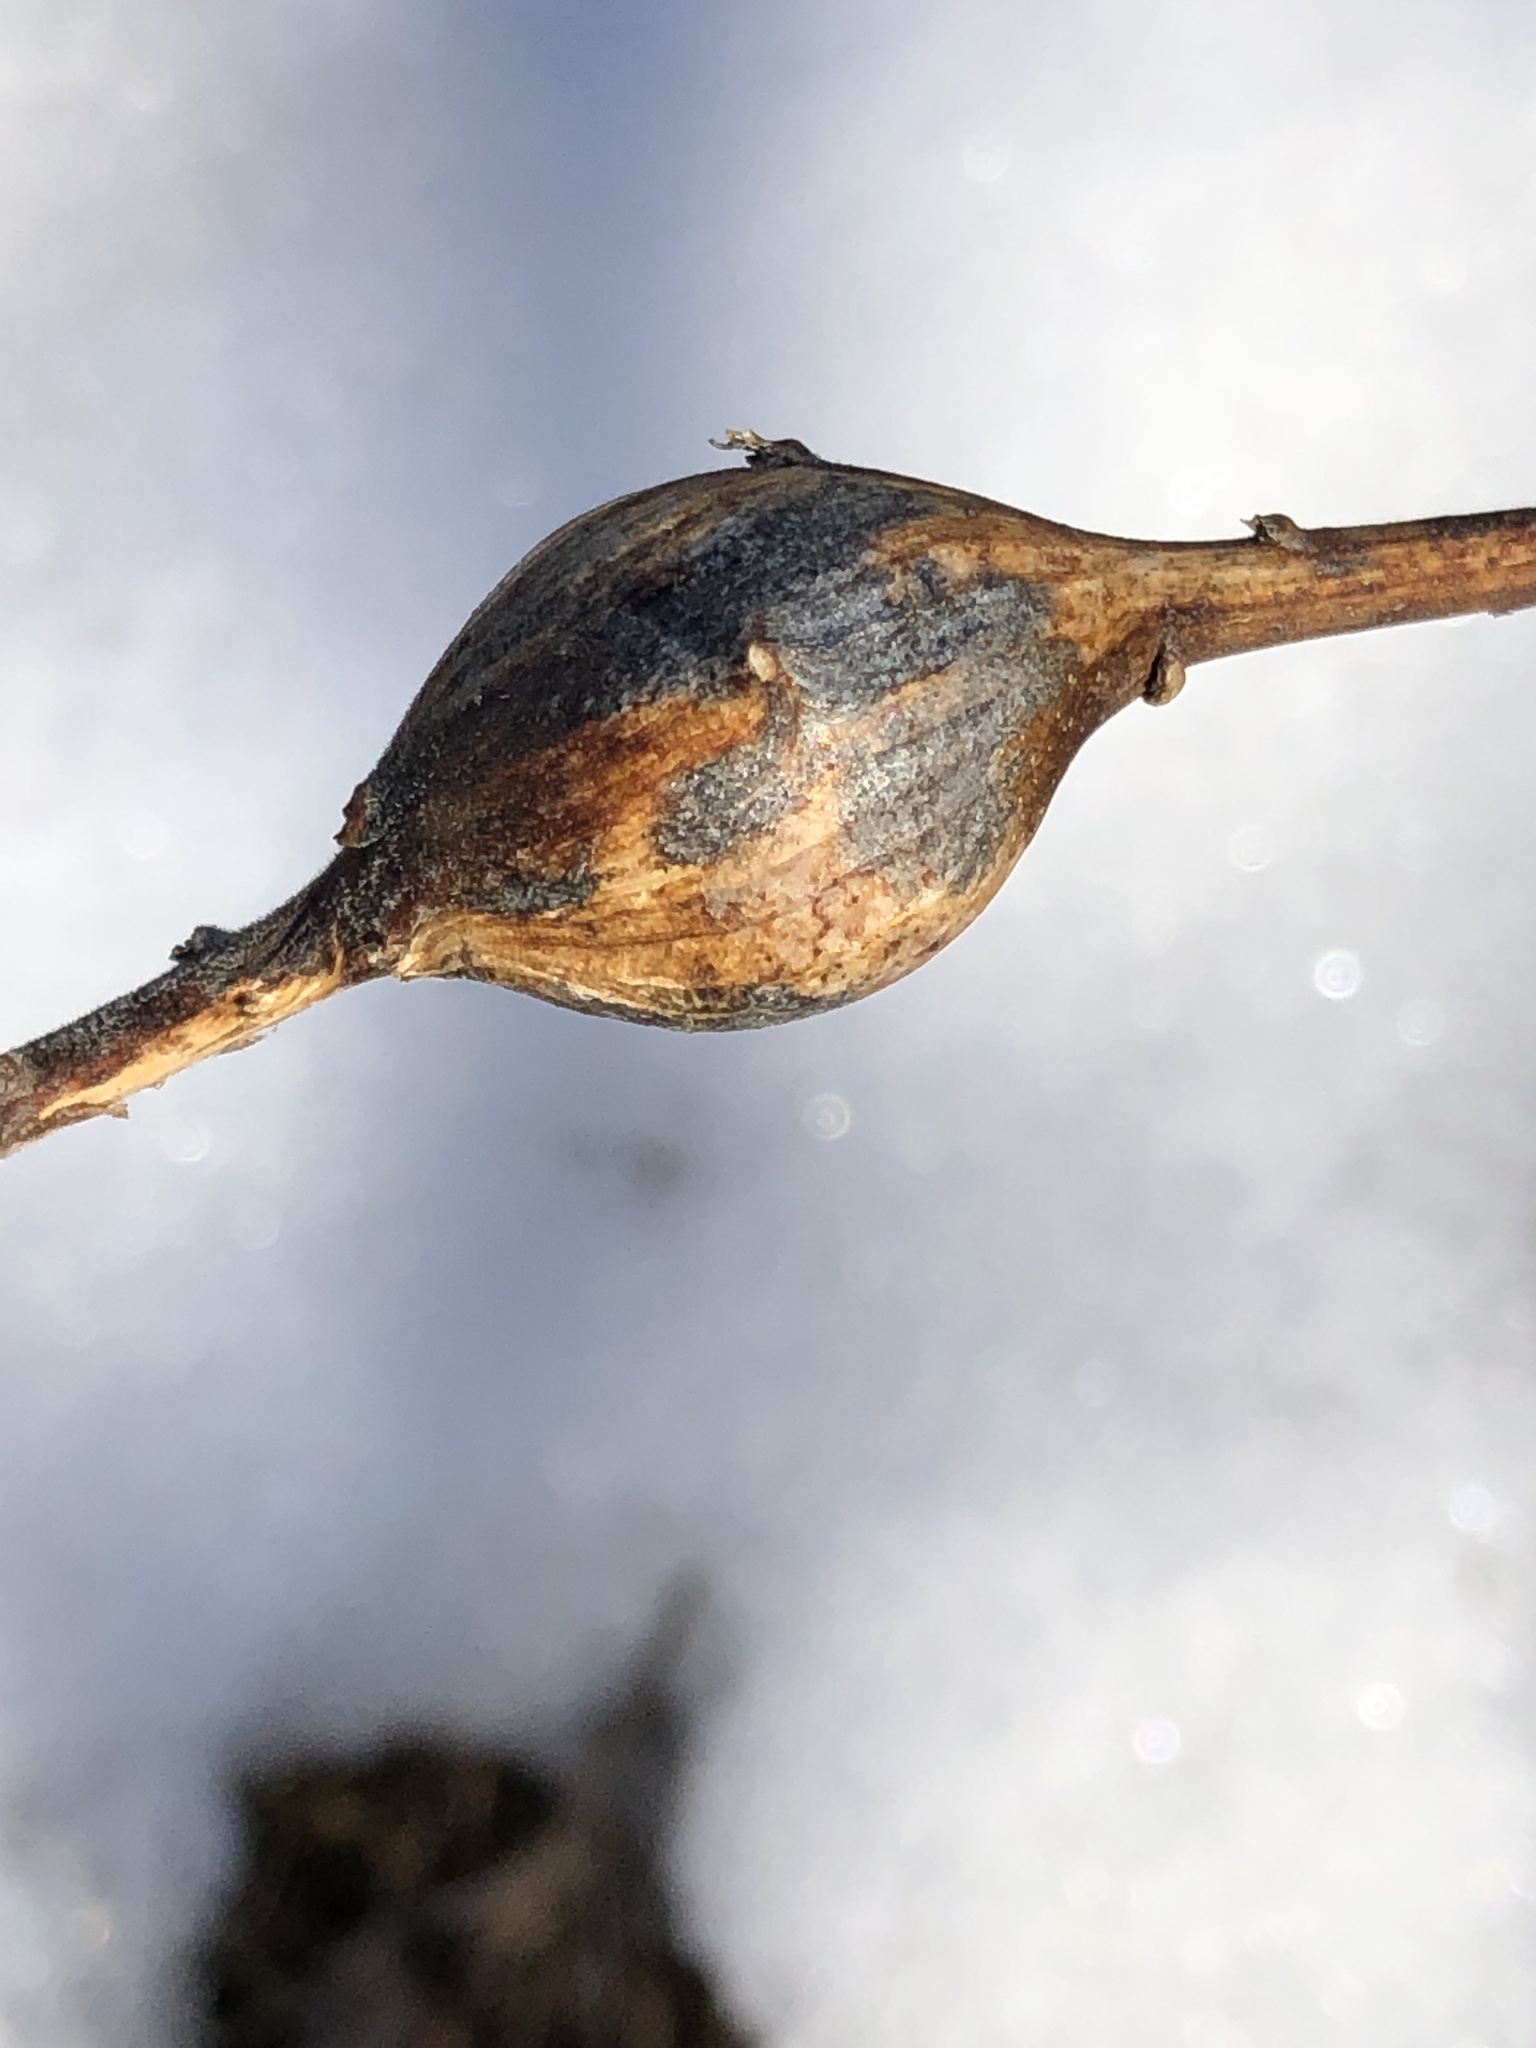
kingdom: Animalia
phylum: Arthropoda
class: Insecta
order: Diptera
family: Tephritidae
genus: Eurosta
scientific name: Eurosta solidaginis
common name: Goldenrod gall fly
